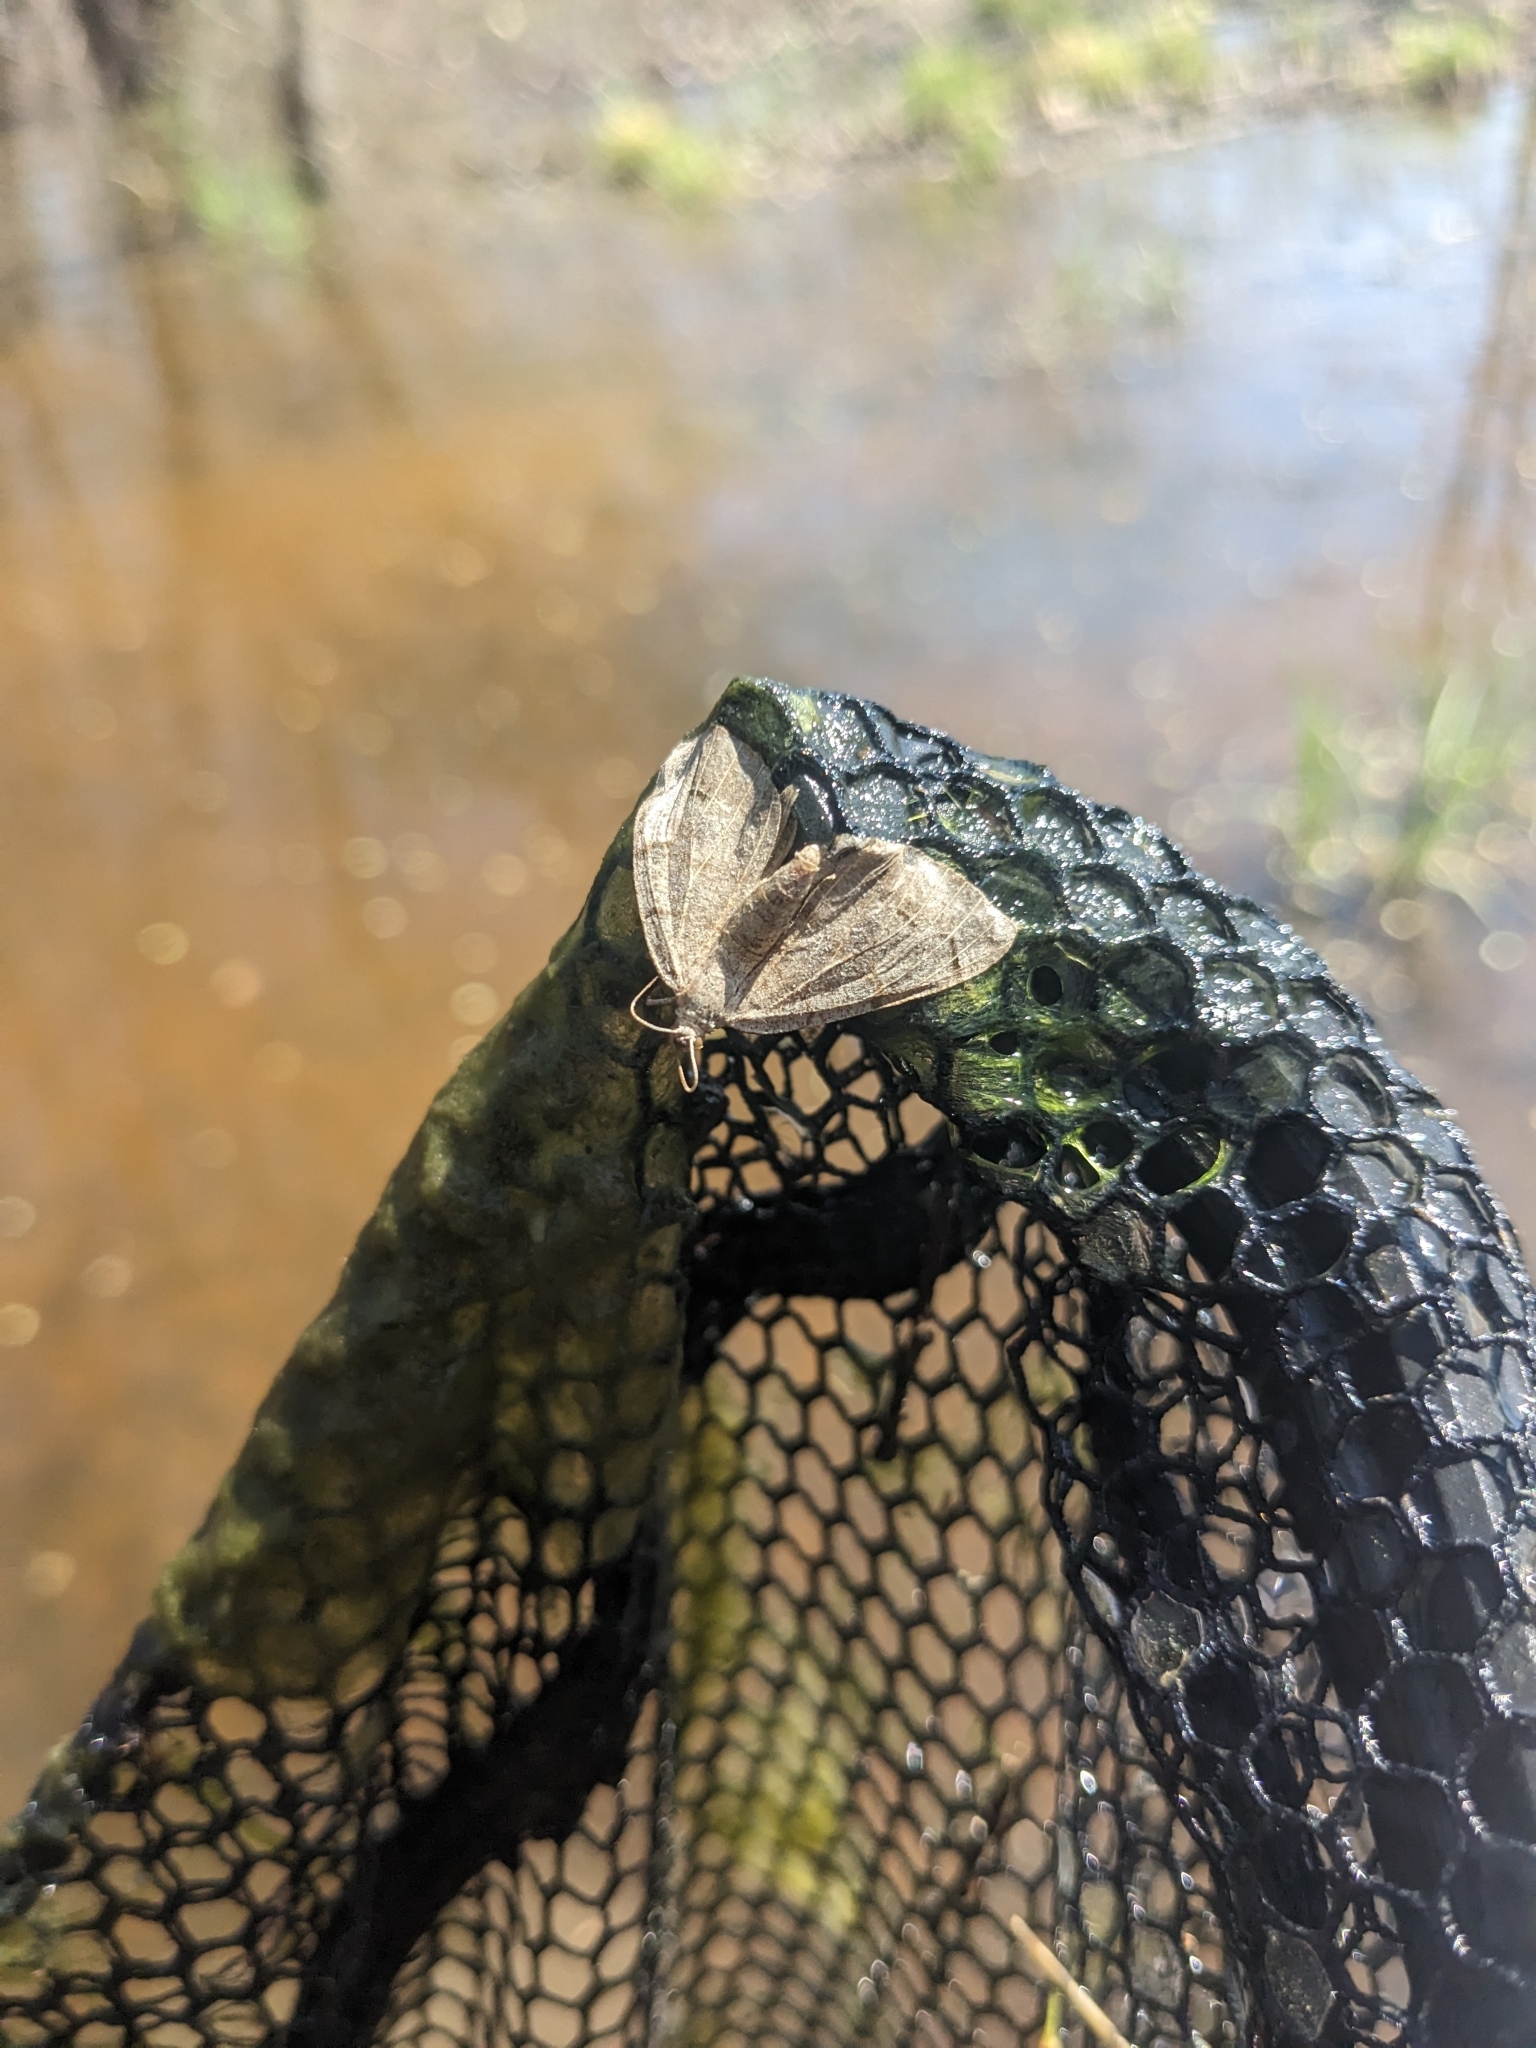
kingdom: Animalia
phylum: Arthropoda
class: Insecta
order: Lepidoptera
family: Geometridae
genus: Isturgia
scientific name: Isturgia dislocaria
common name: Pale-viened enconista
